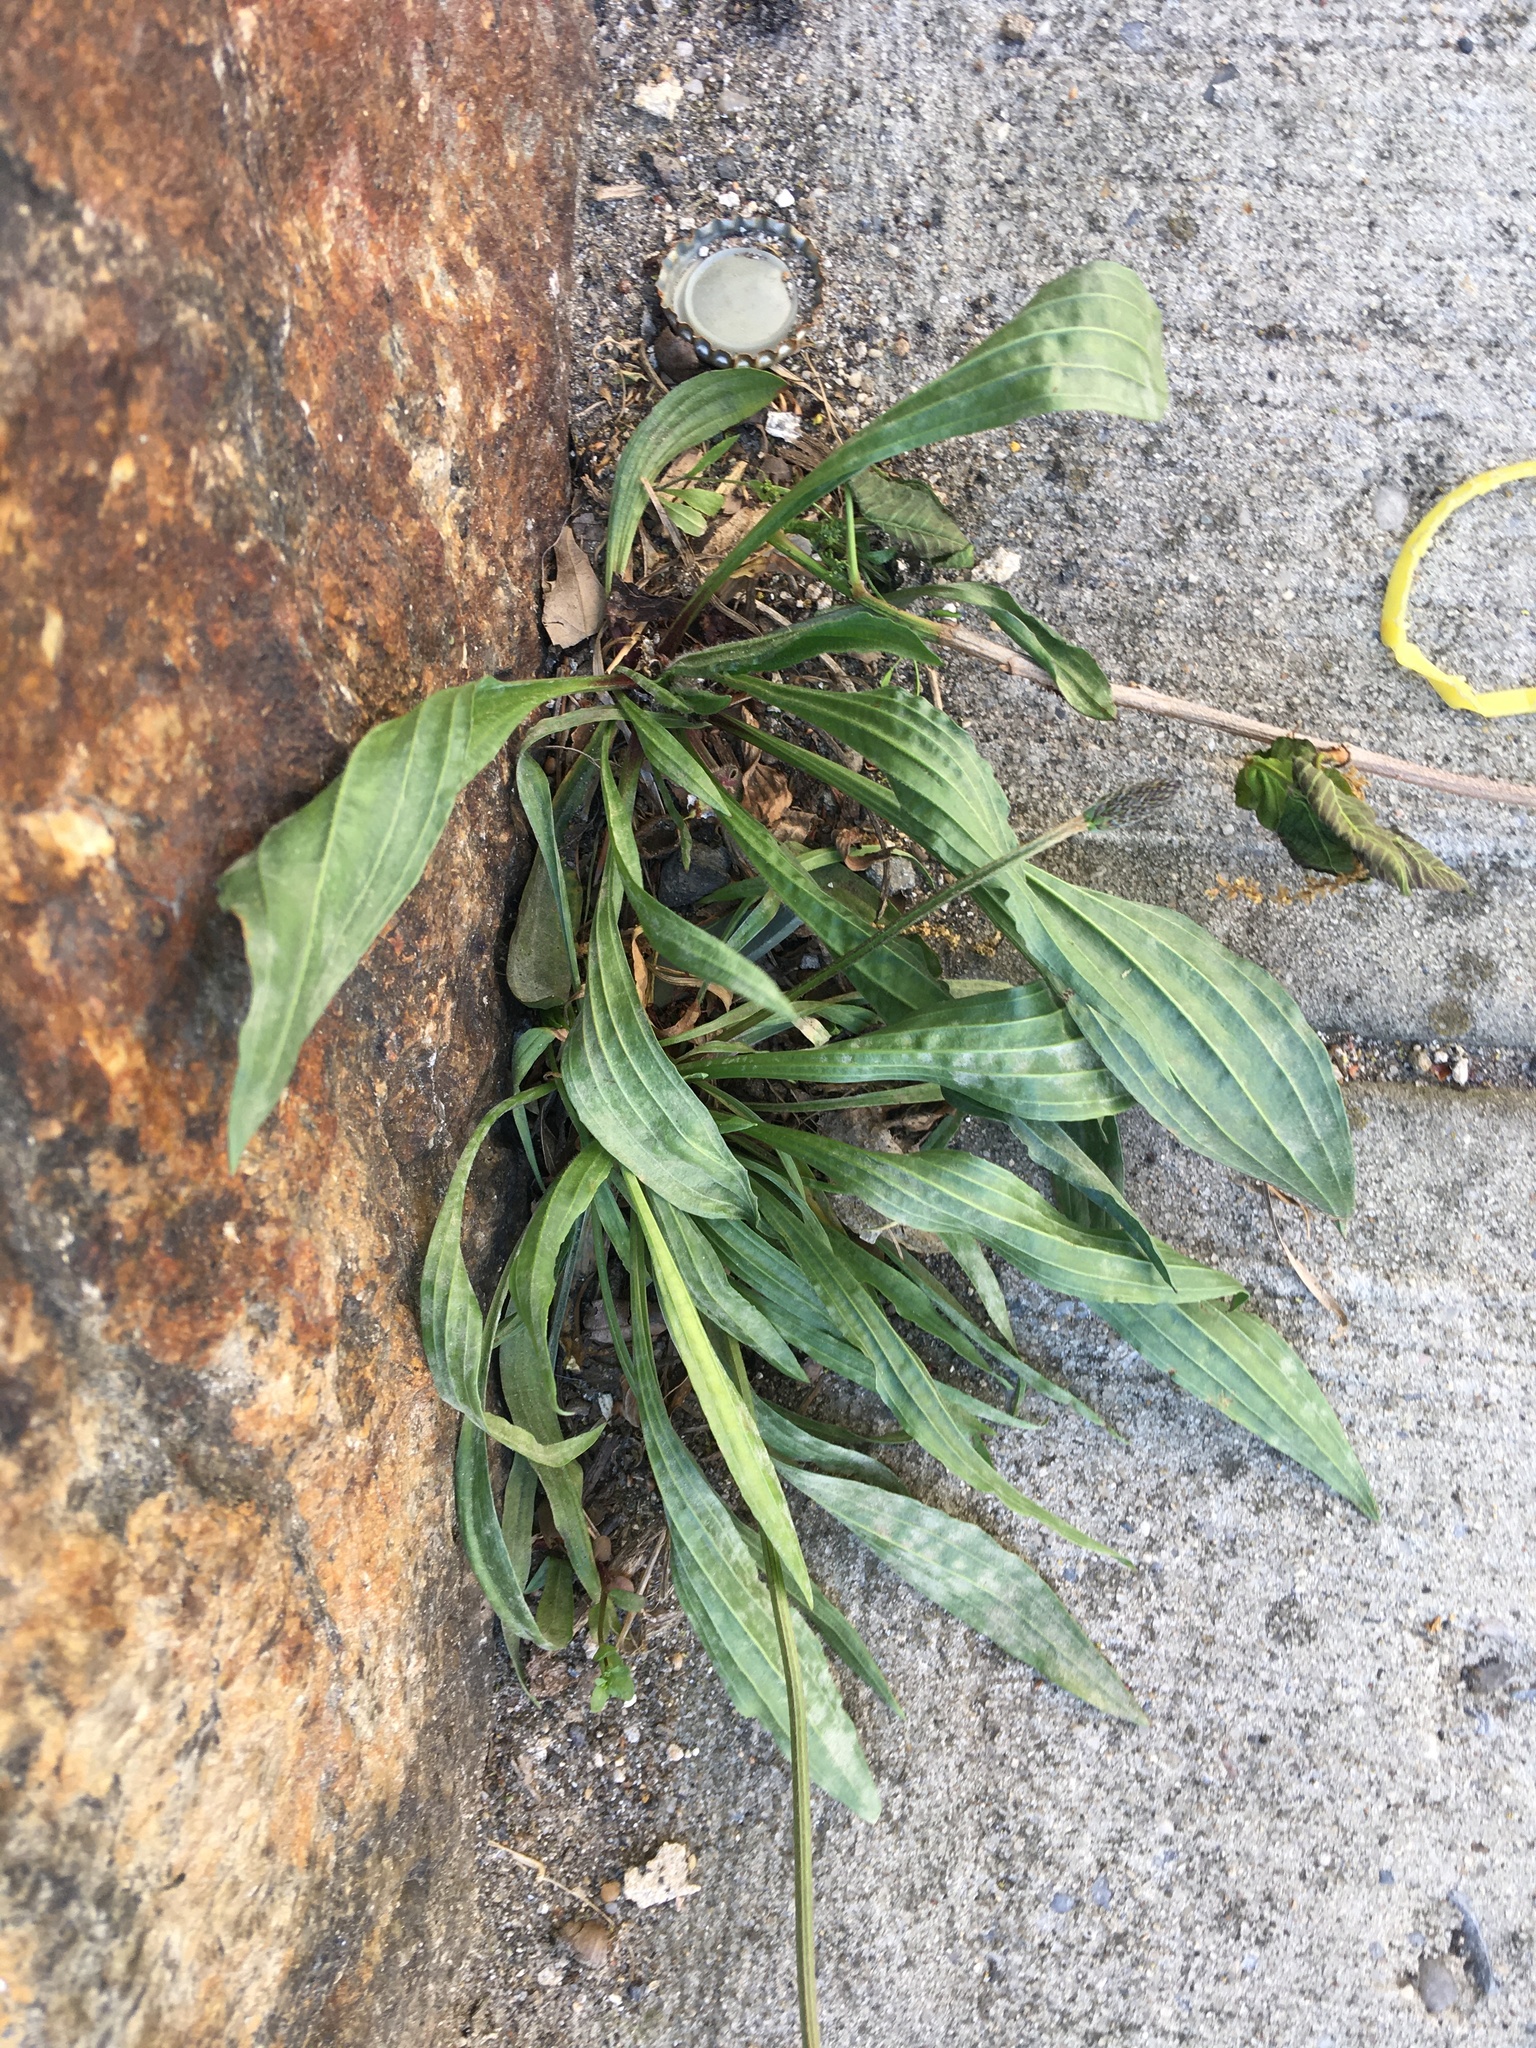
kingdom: Plantae
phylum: Tracheophyta
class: Magnoliopsida
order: Lamiales
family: Plantaginaceae
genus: Plantago
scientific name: Plantago lanceolata
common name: Ribwort plantain
